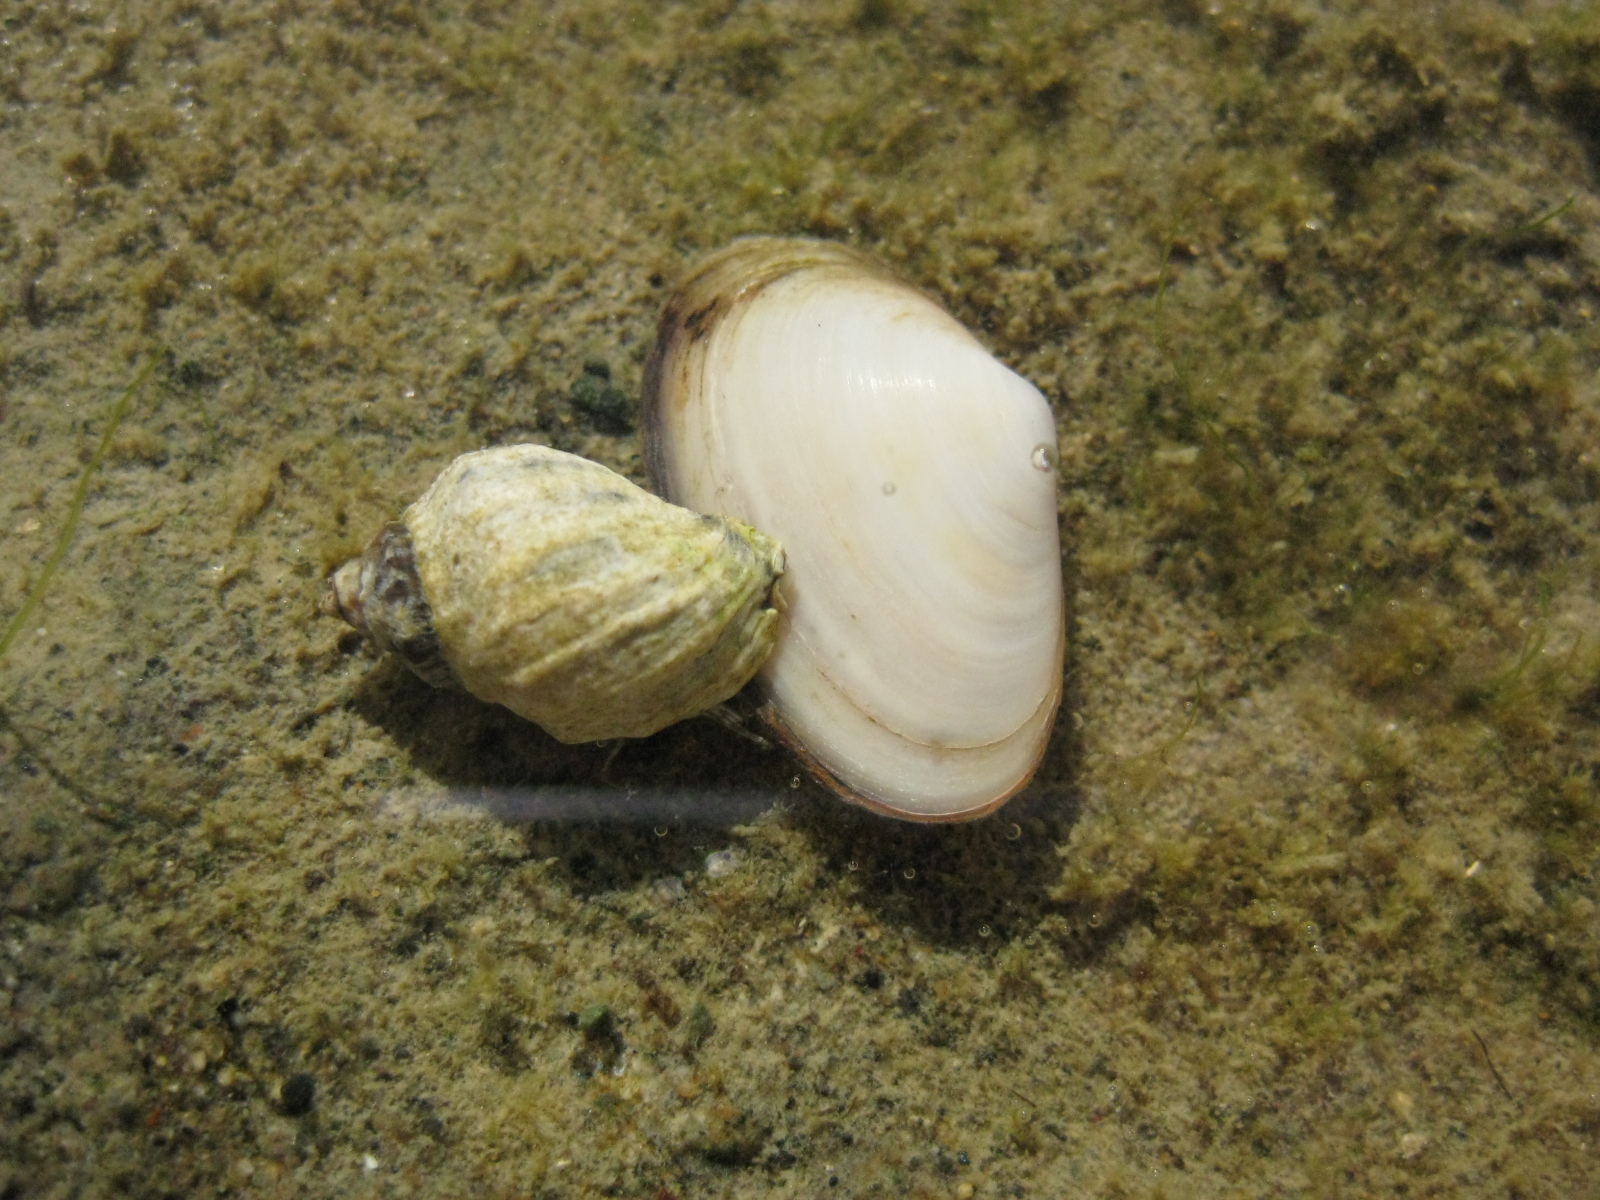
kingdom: Animalia
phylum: Mollusca
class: Bivalvia
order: Venerida
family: Mesodesmatidae
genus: Paphies
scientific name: Paphies australis
